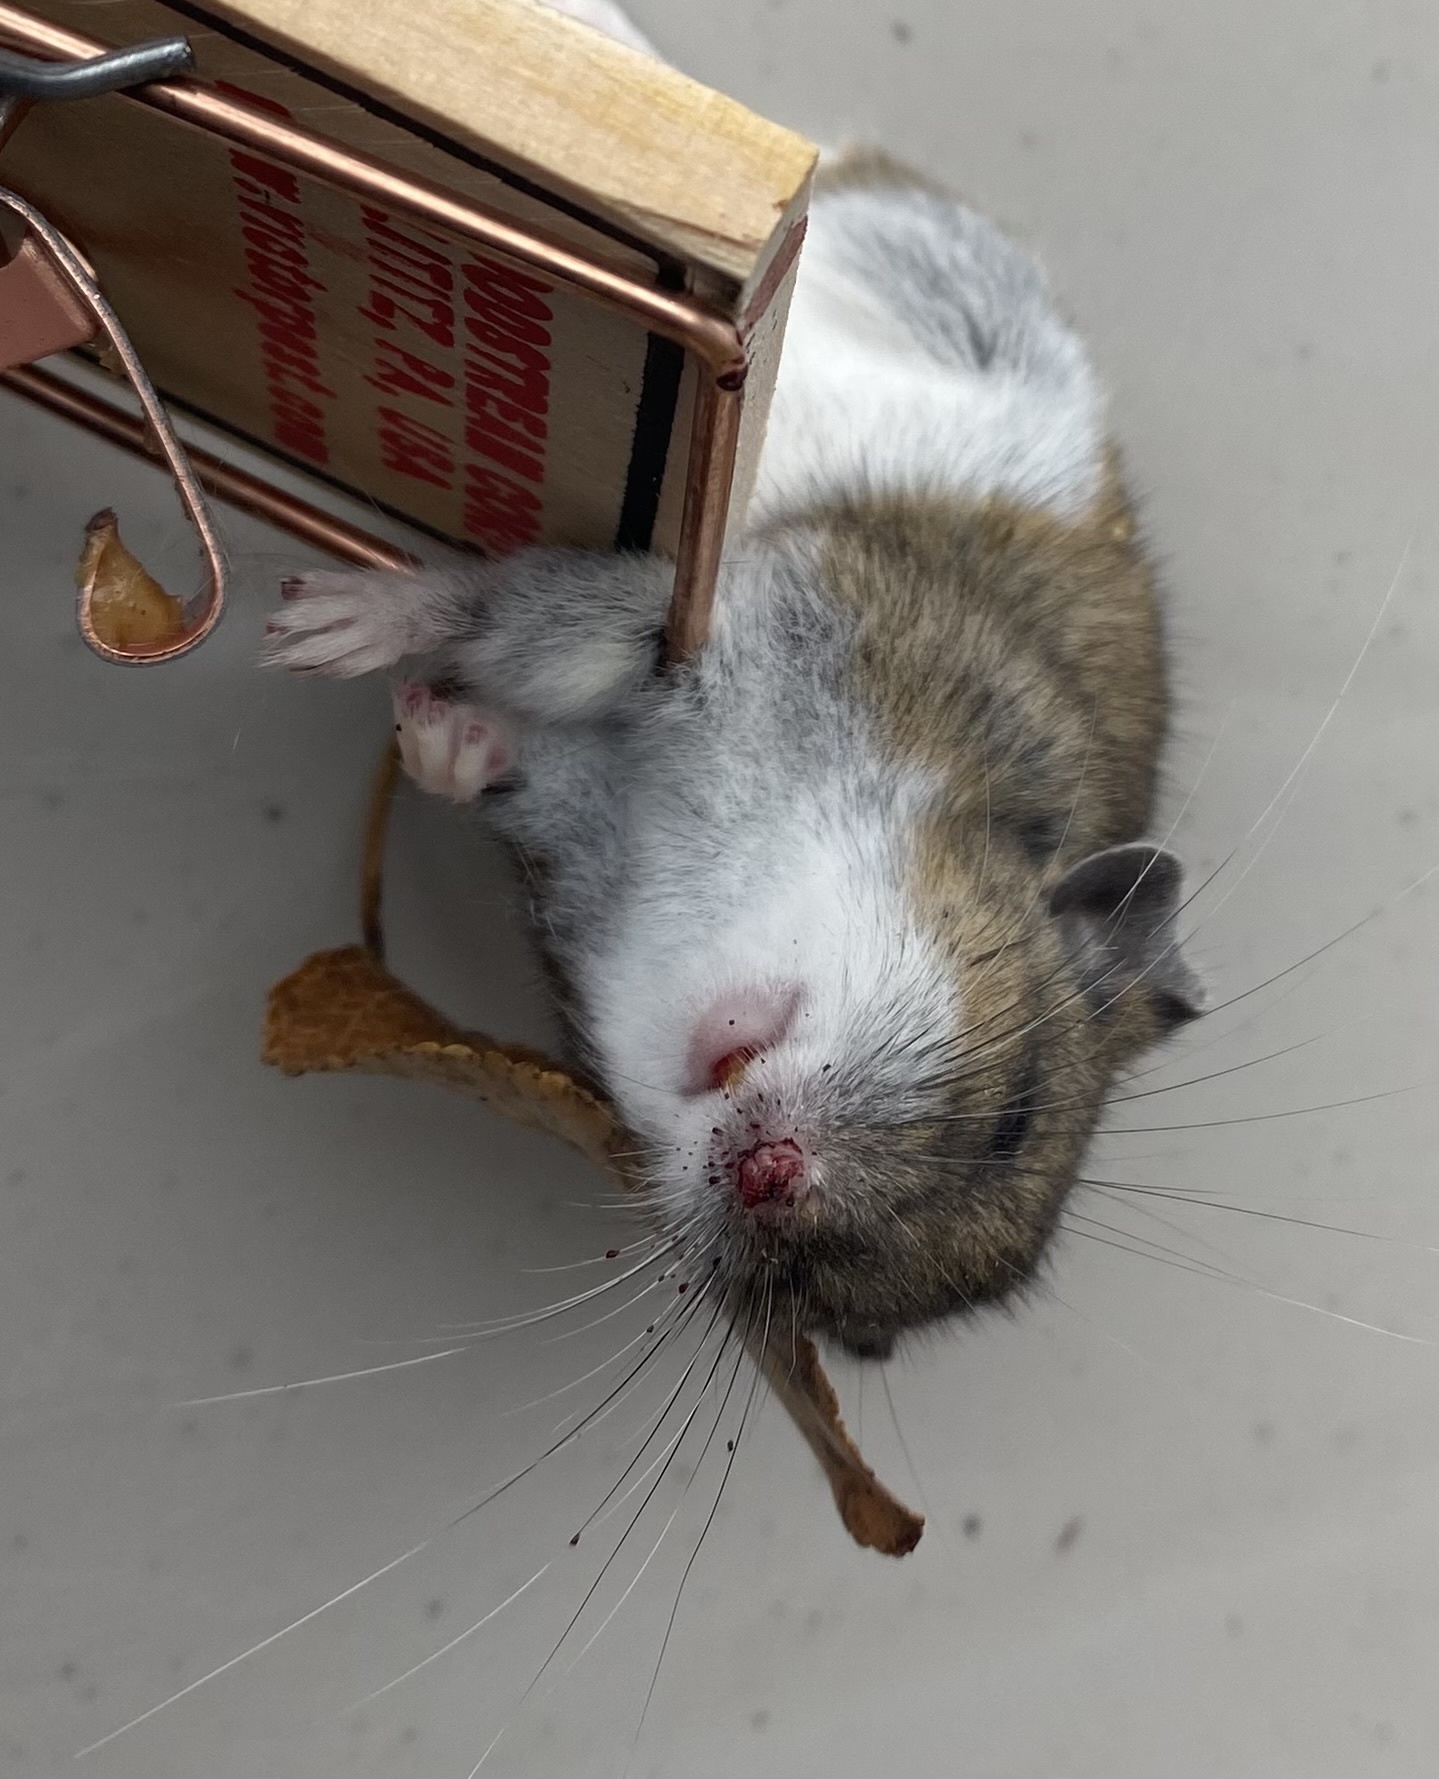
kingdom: Animalia
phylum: Chordata
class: Mammalia
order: Rodentia
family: Cricetidae
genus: Peromyscus
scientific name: Peromyscus maniculatus
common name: Deer mouse
